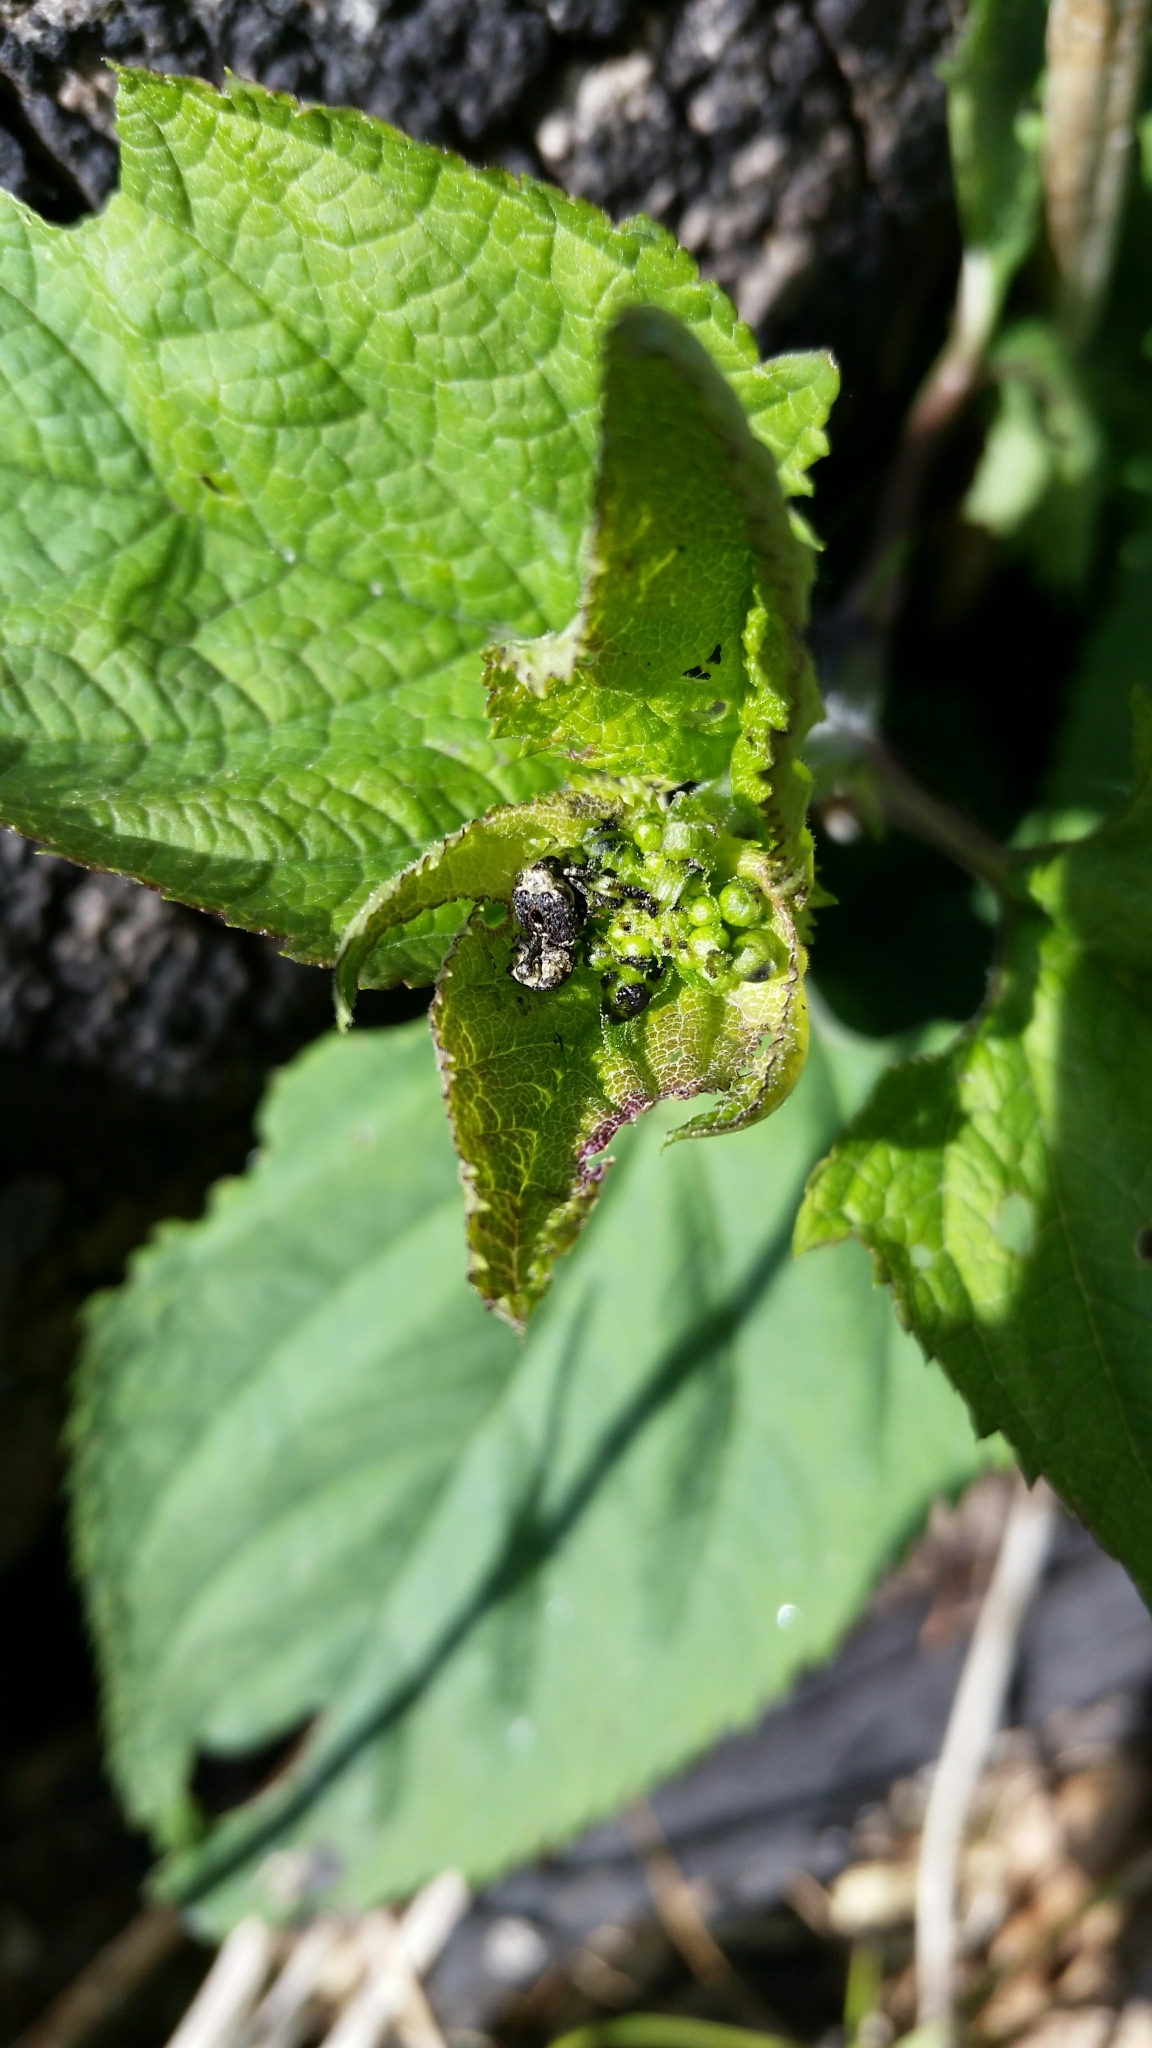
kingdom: Animalia
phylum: Arthropoda
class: Insecta
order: Coleoptera
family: Curculionidae
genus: Cionus
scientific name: Cionus scrophulariae
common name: Common figwort weevil
